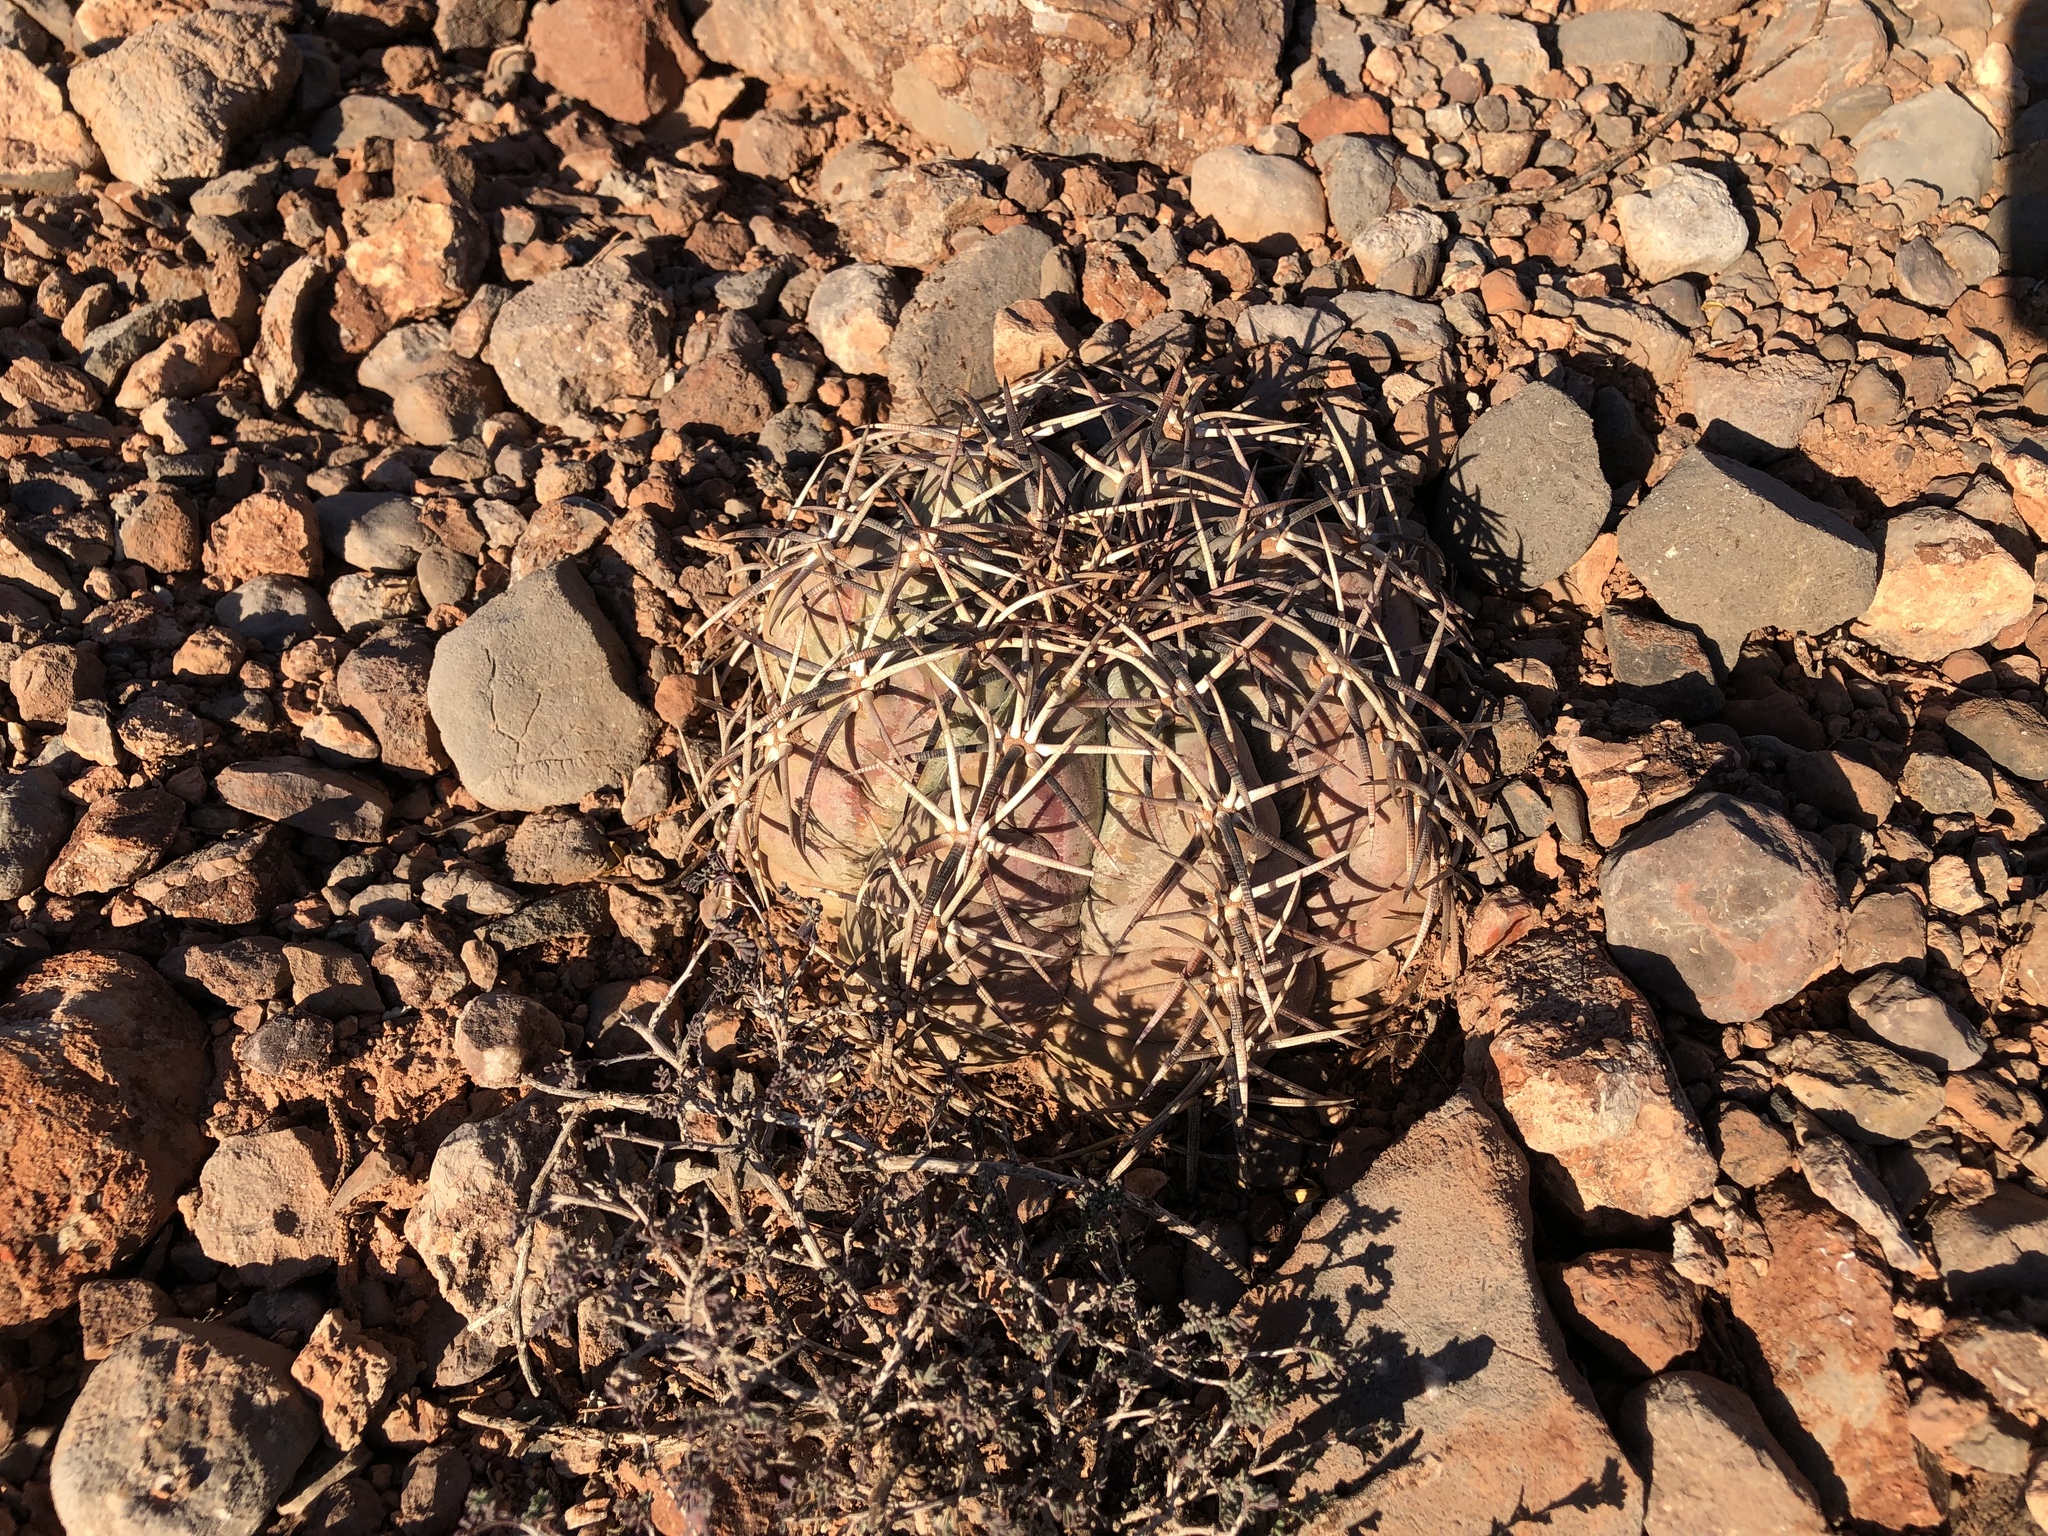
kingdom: Plantae
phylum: Tracheophyta
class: Magnoliopsida
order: Caryophyllales
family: Cactaceae
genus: Echinocactus
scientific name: Echinocactus horizonthalonius
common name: Devilshead
